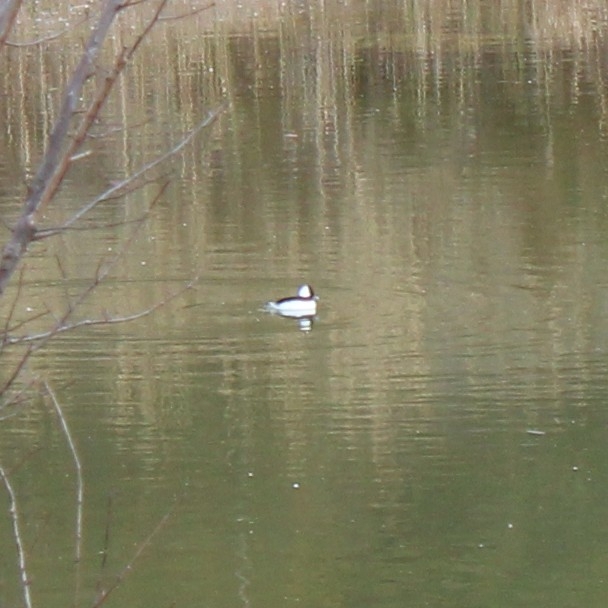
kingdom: Animalia
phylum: Chordata
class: Aves
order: Anseriformes
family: Anatidae
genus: Bucephala
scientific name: Bucephala albeola
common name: Bufflehead
